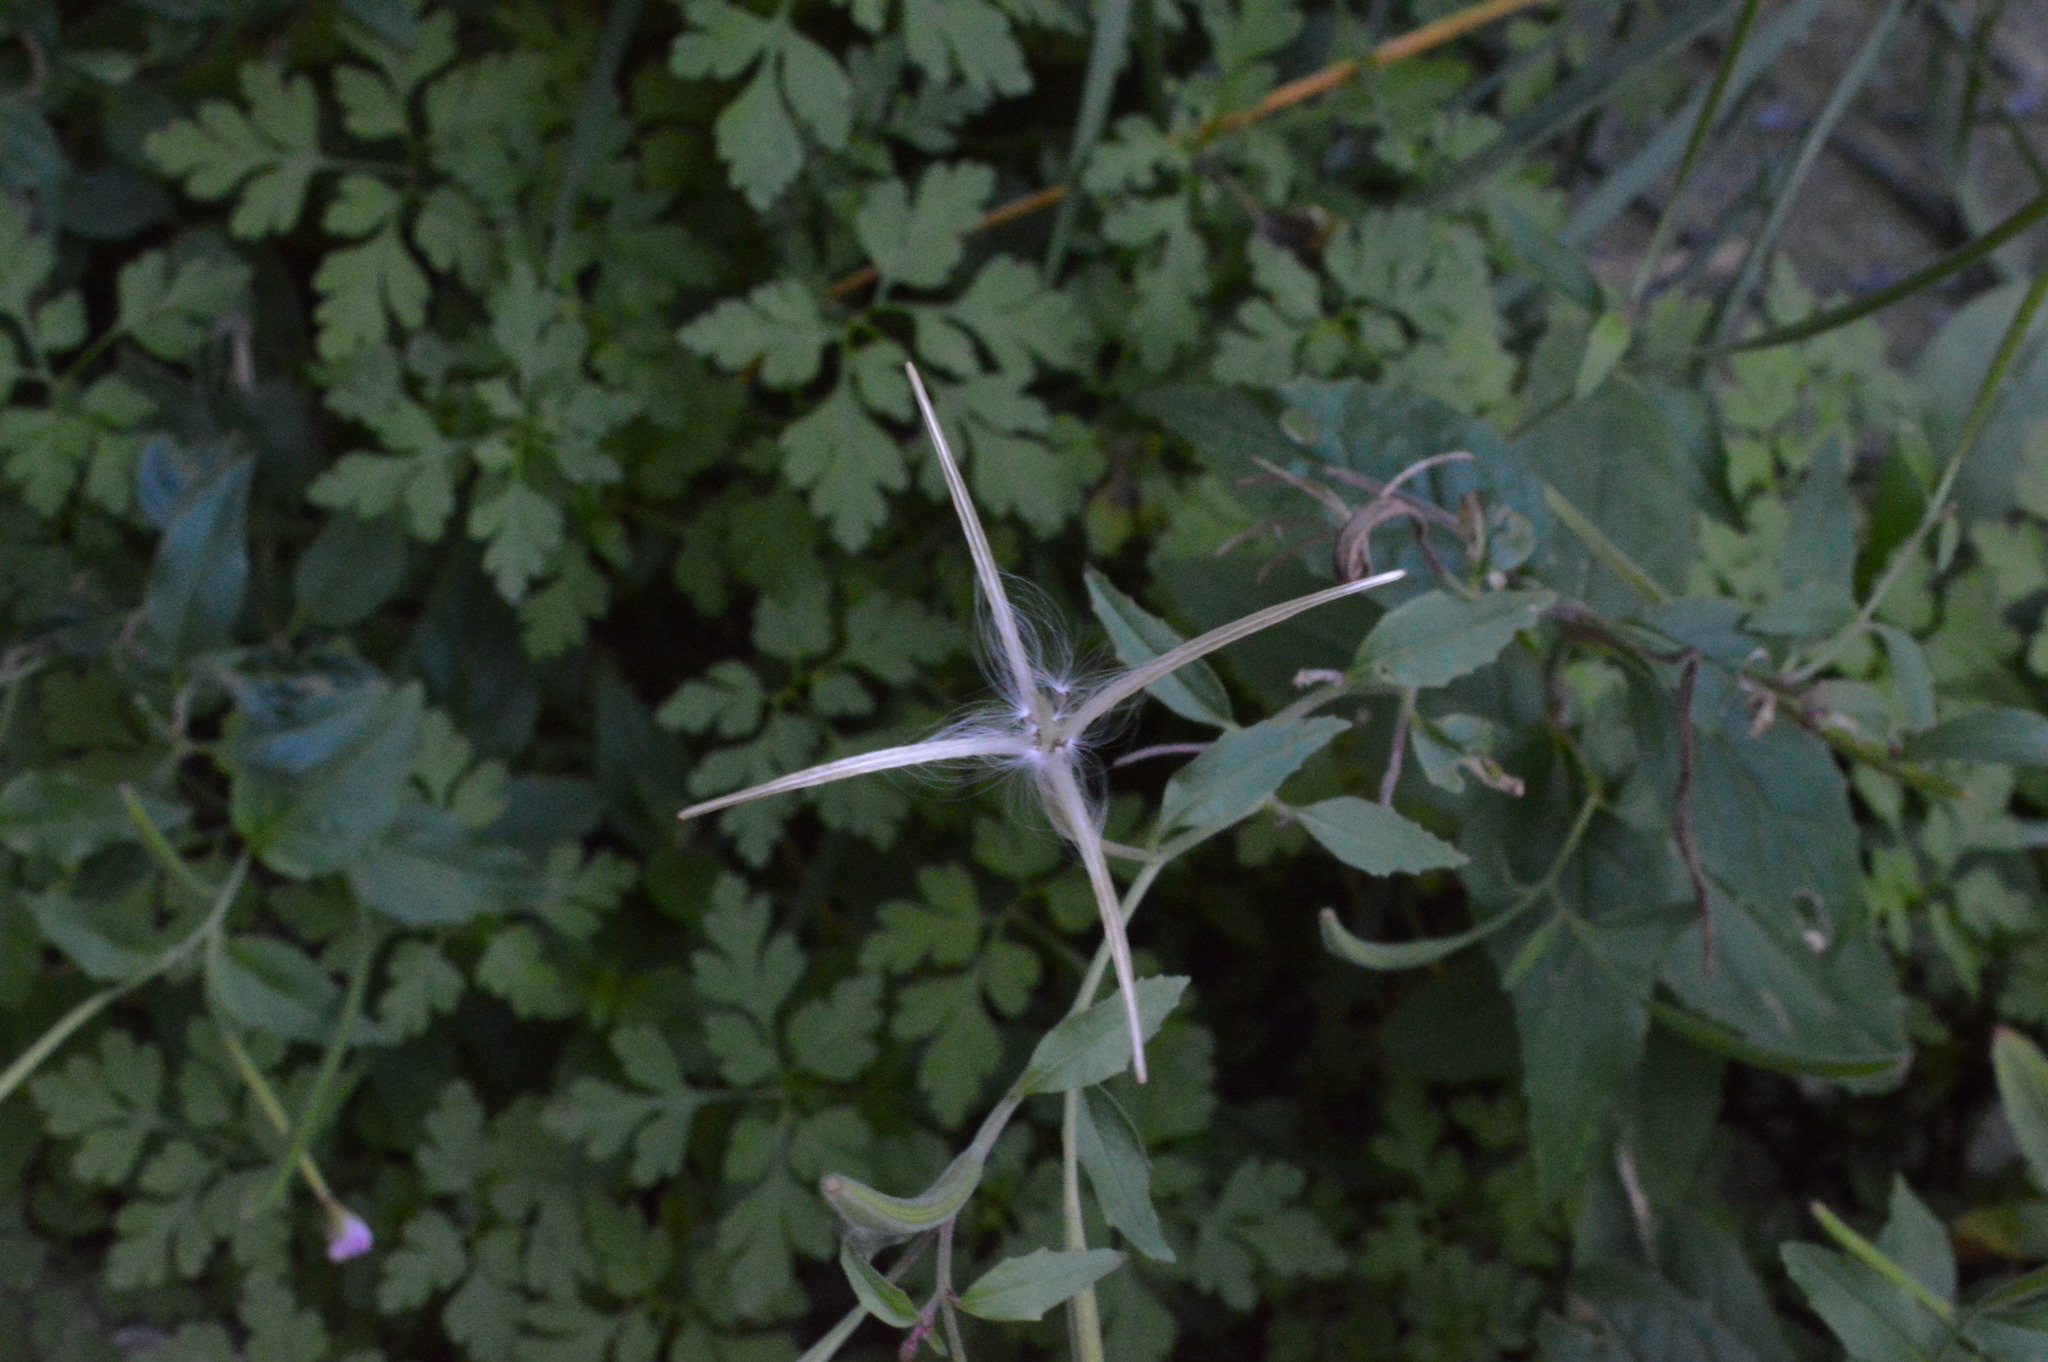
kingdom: Plantae
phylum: Tracheophyta
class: Magnoliopsida
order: Myrtales
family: Onagraceae
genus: Epilobium
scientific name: Epilobium montanum
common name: Broad-leaved willowherb
